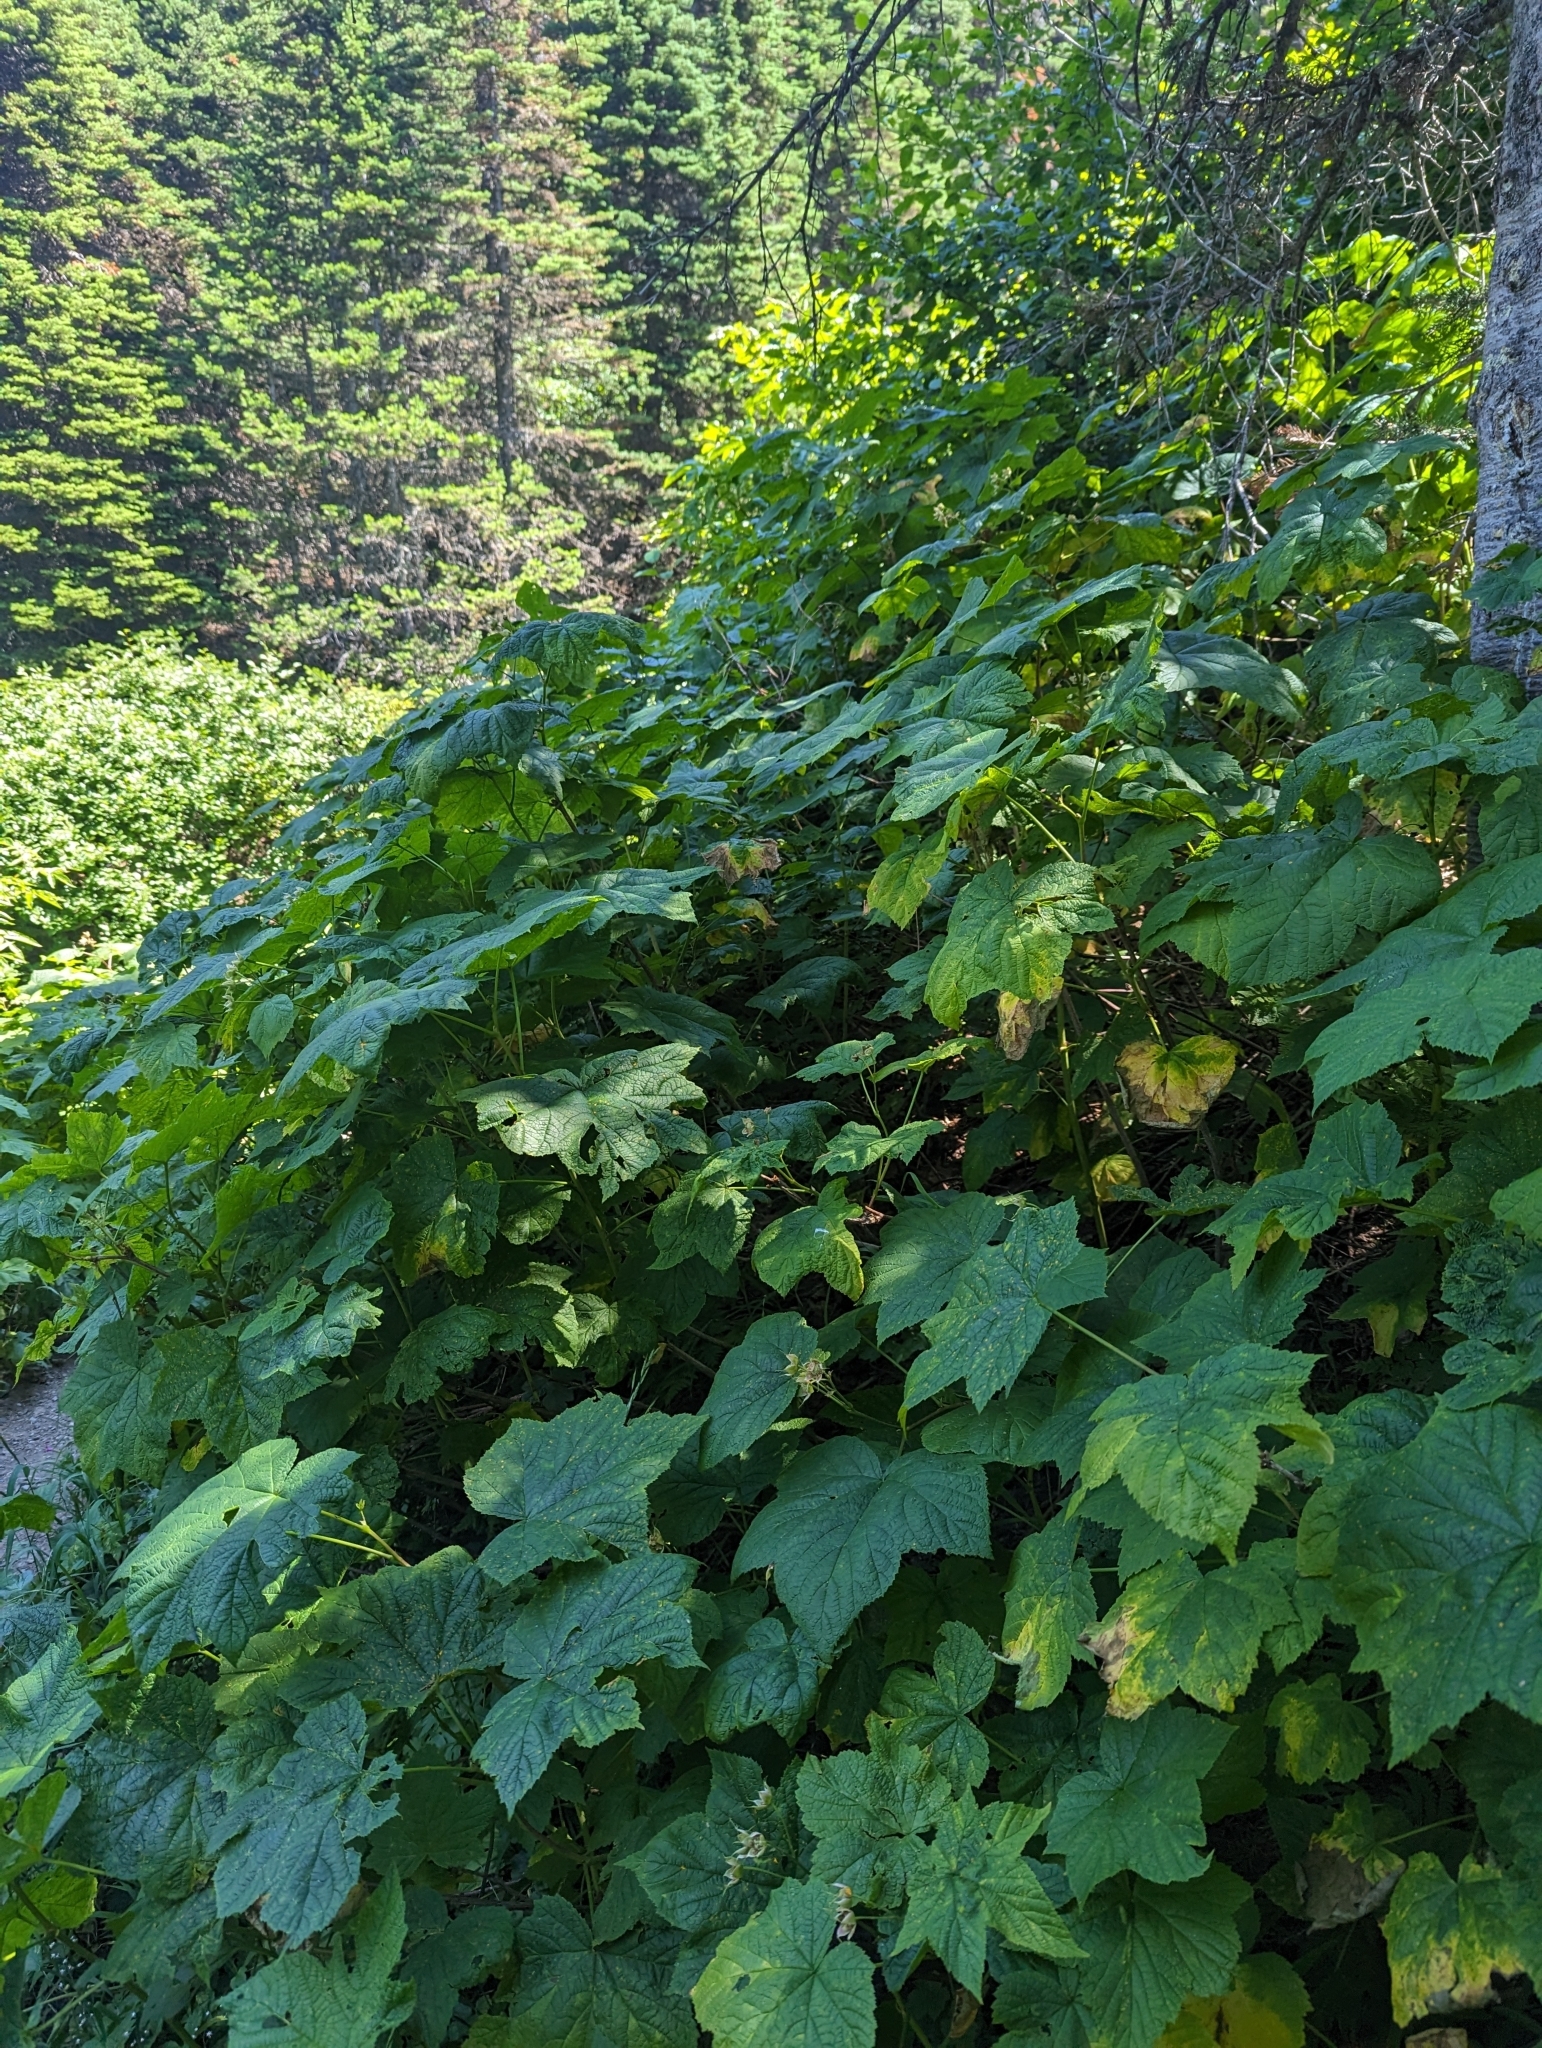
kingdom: Plantae
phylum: Tracheophyta
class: Magnoliopsida
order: Rosales
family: Rosaceae
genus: Rubus
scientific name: Rubus parviflorus
